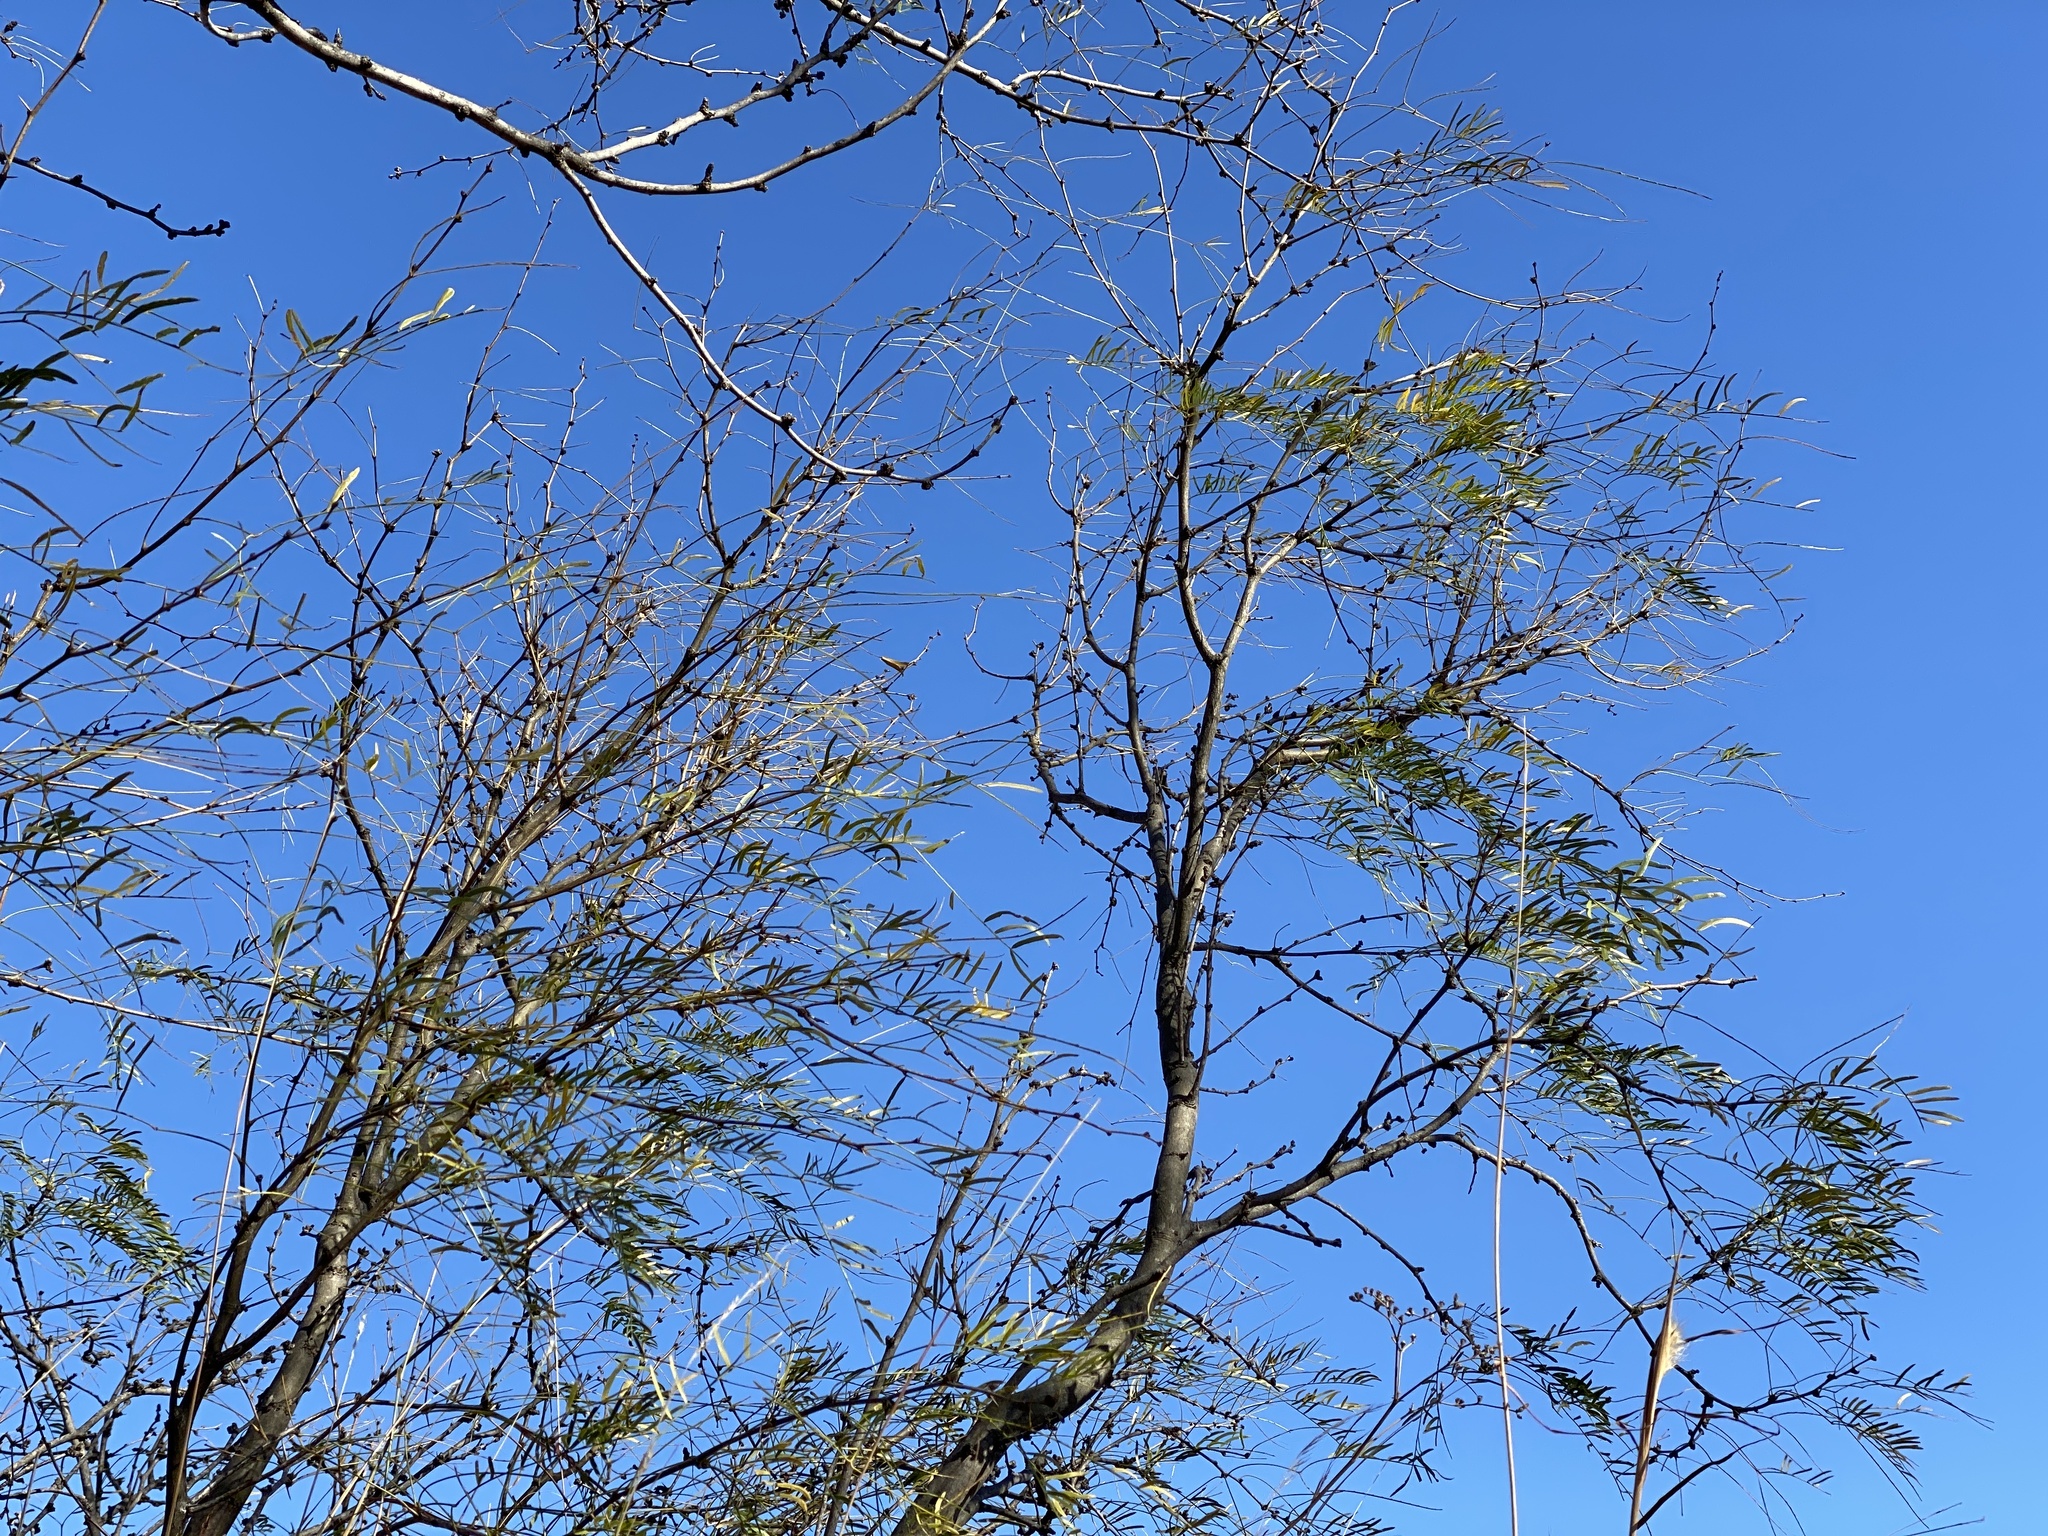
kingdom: Plantae
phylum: Tracheophyta
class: Magnoliopsida
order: Fabales
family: Fabaceae
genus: Prosopis
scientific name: Prosopis glandulosa
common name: Honey mesquite
